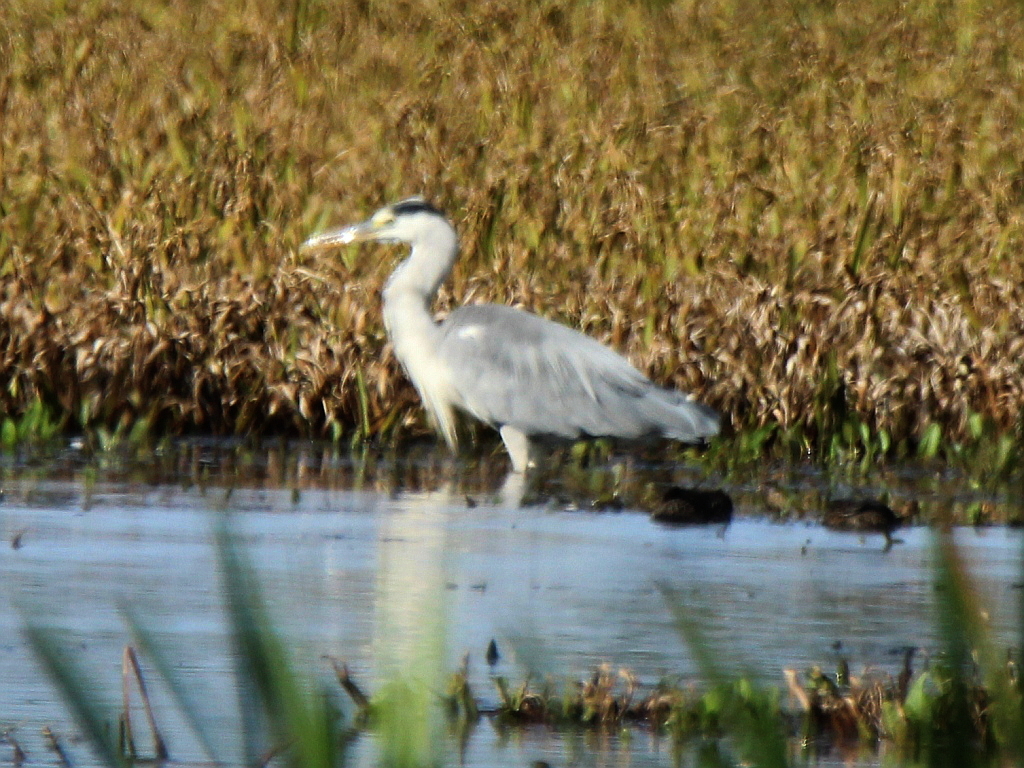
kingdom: Animalia
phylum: Chordata
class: Aves
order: Pelecaniformes
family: Ardeidae
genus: Ardea
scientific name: Ardea cinerea
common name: Grey heron
